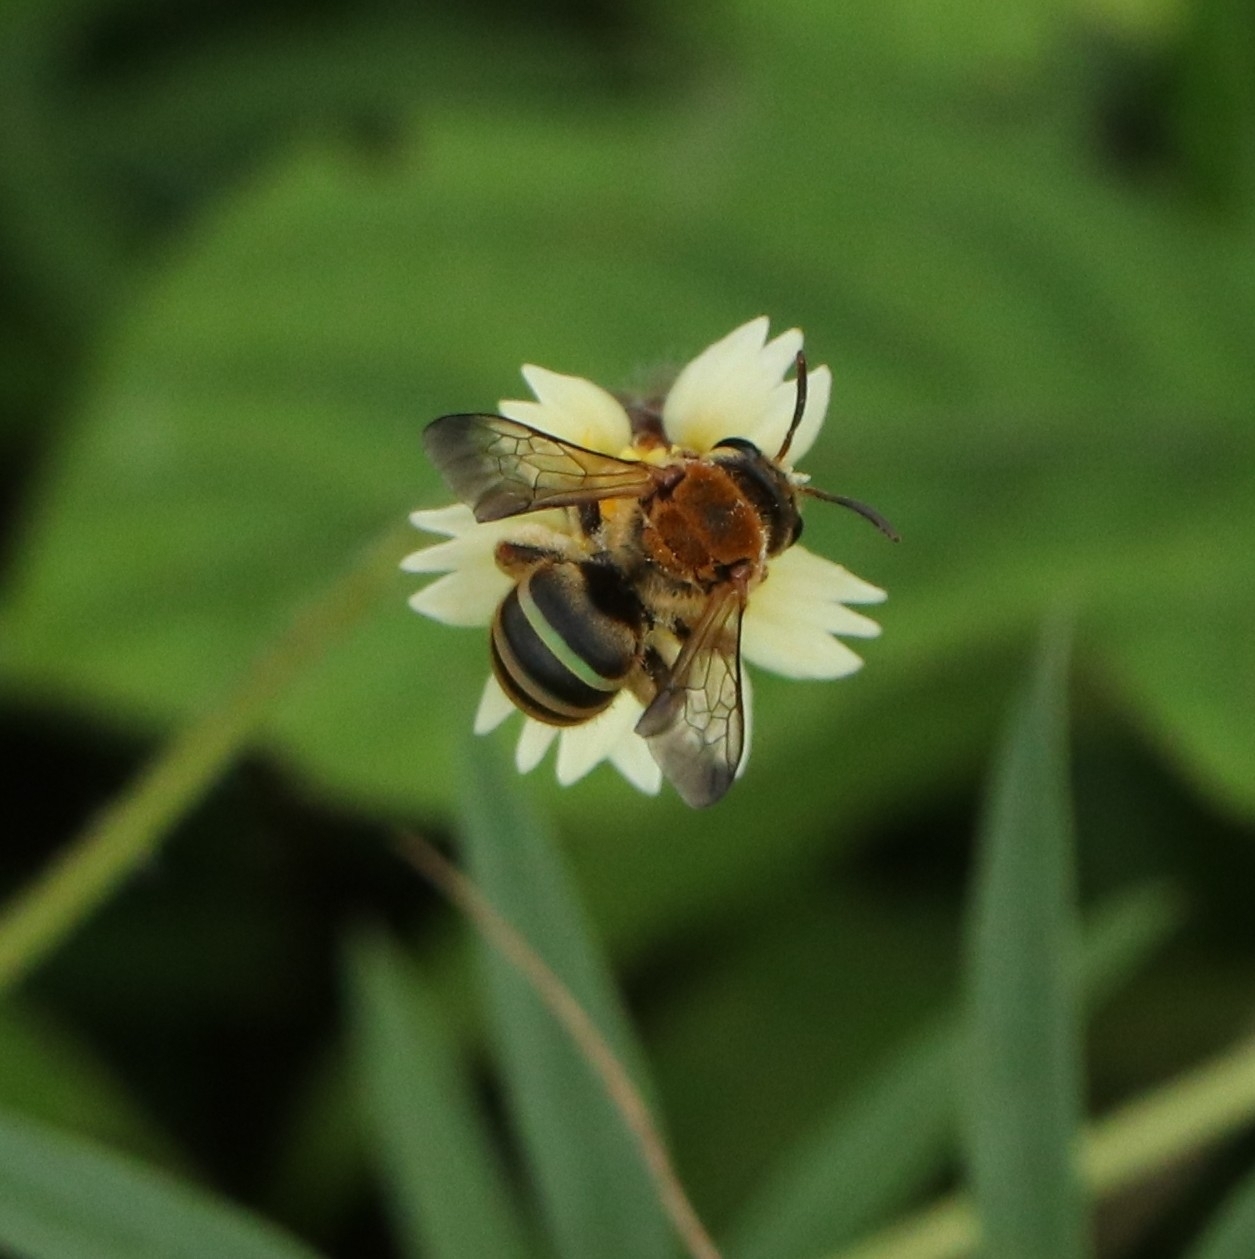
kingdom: Animalia
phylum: Arthropoda
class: Insecta
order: Hymenoptera
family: Halictidae
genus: Nomia
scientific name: Nomia crassipes
